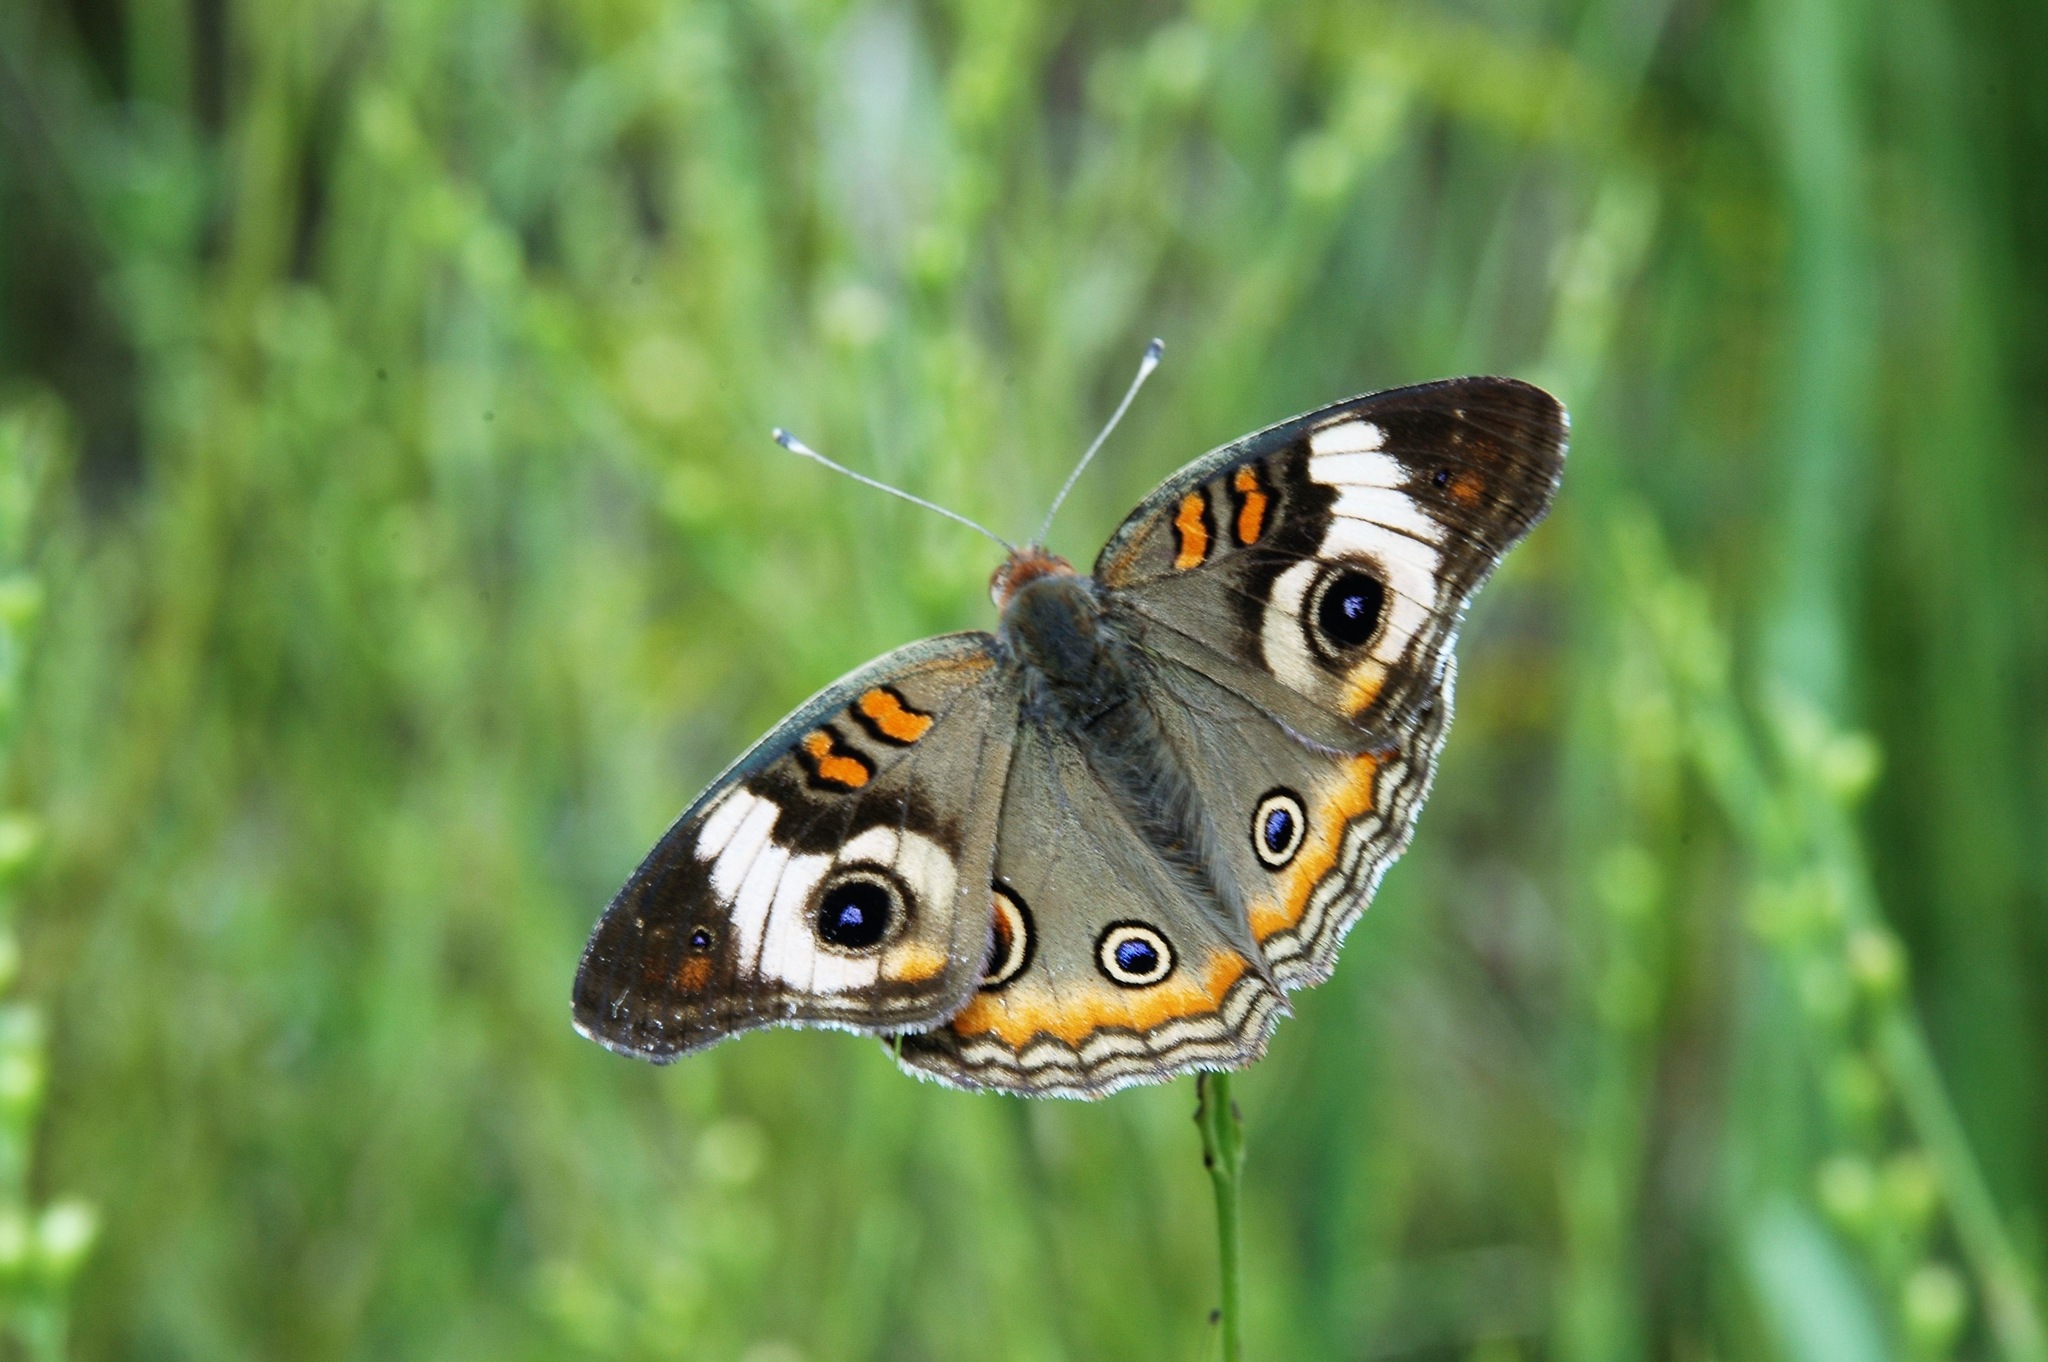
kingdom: Animalia
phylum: Arthropoda
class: Insecta
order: Lepidoptera
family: Nymphalidae
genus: Junonia
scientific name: Junonia coenia
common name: Common buckeye
